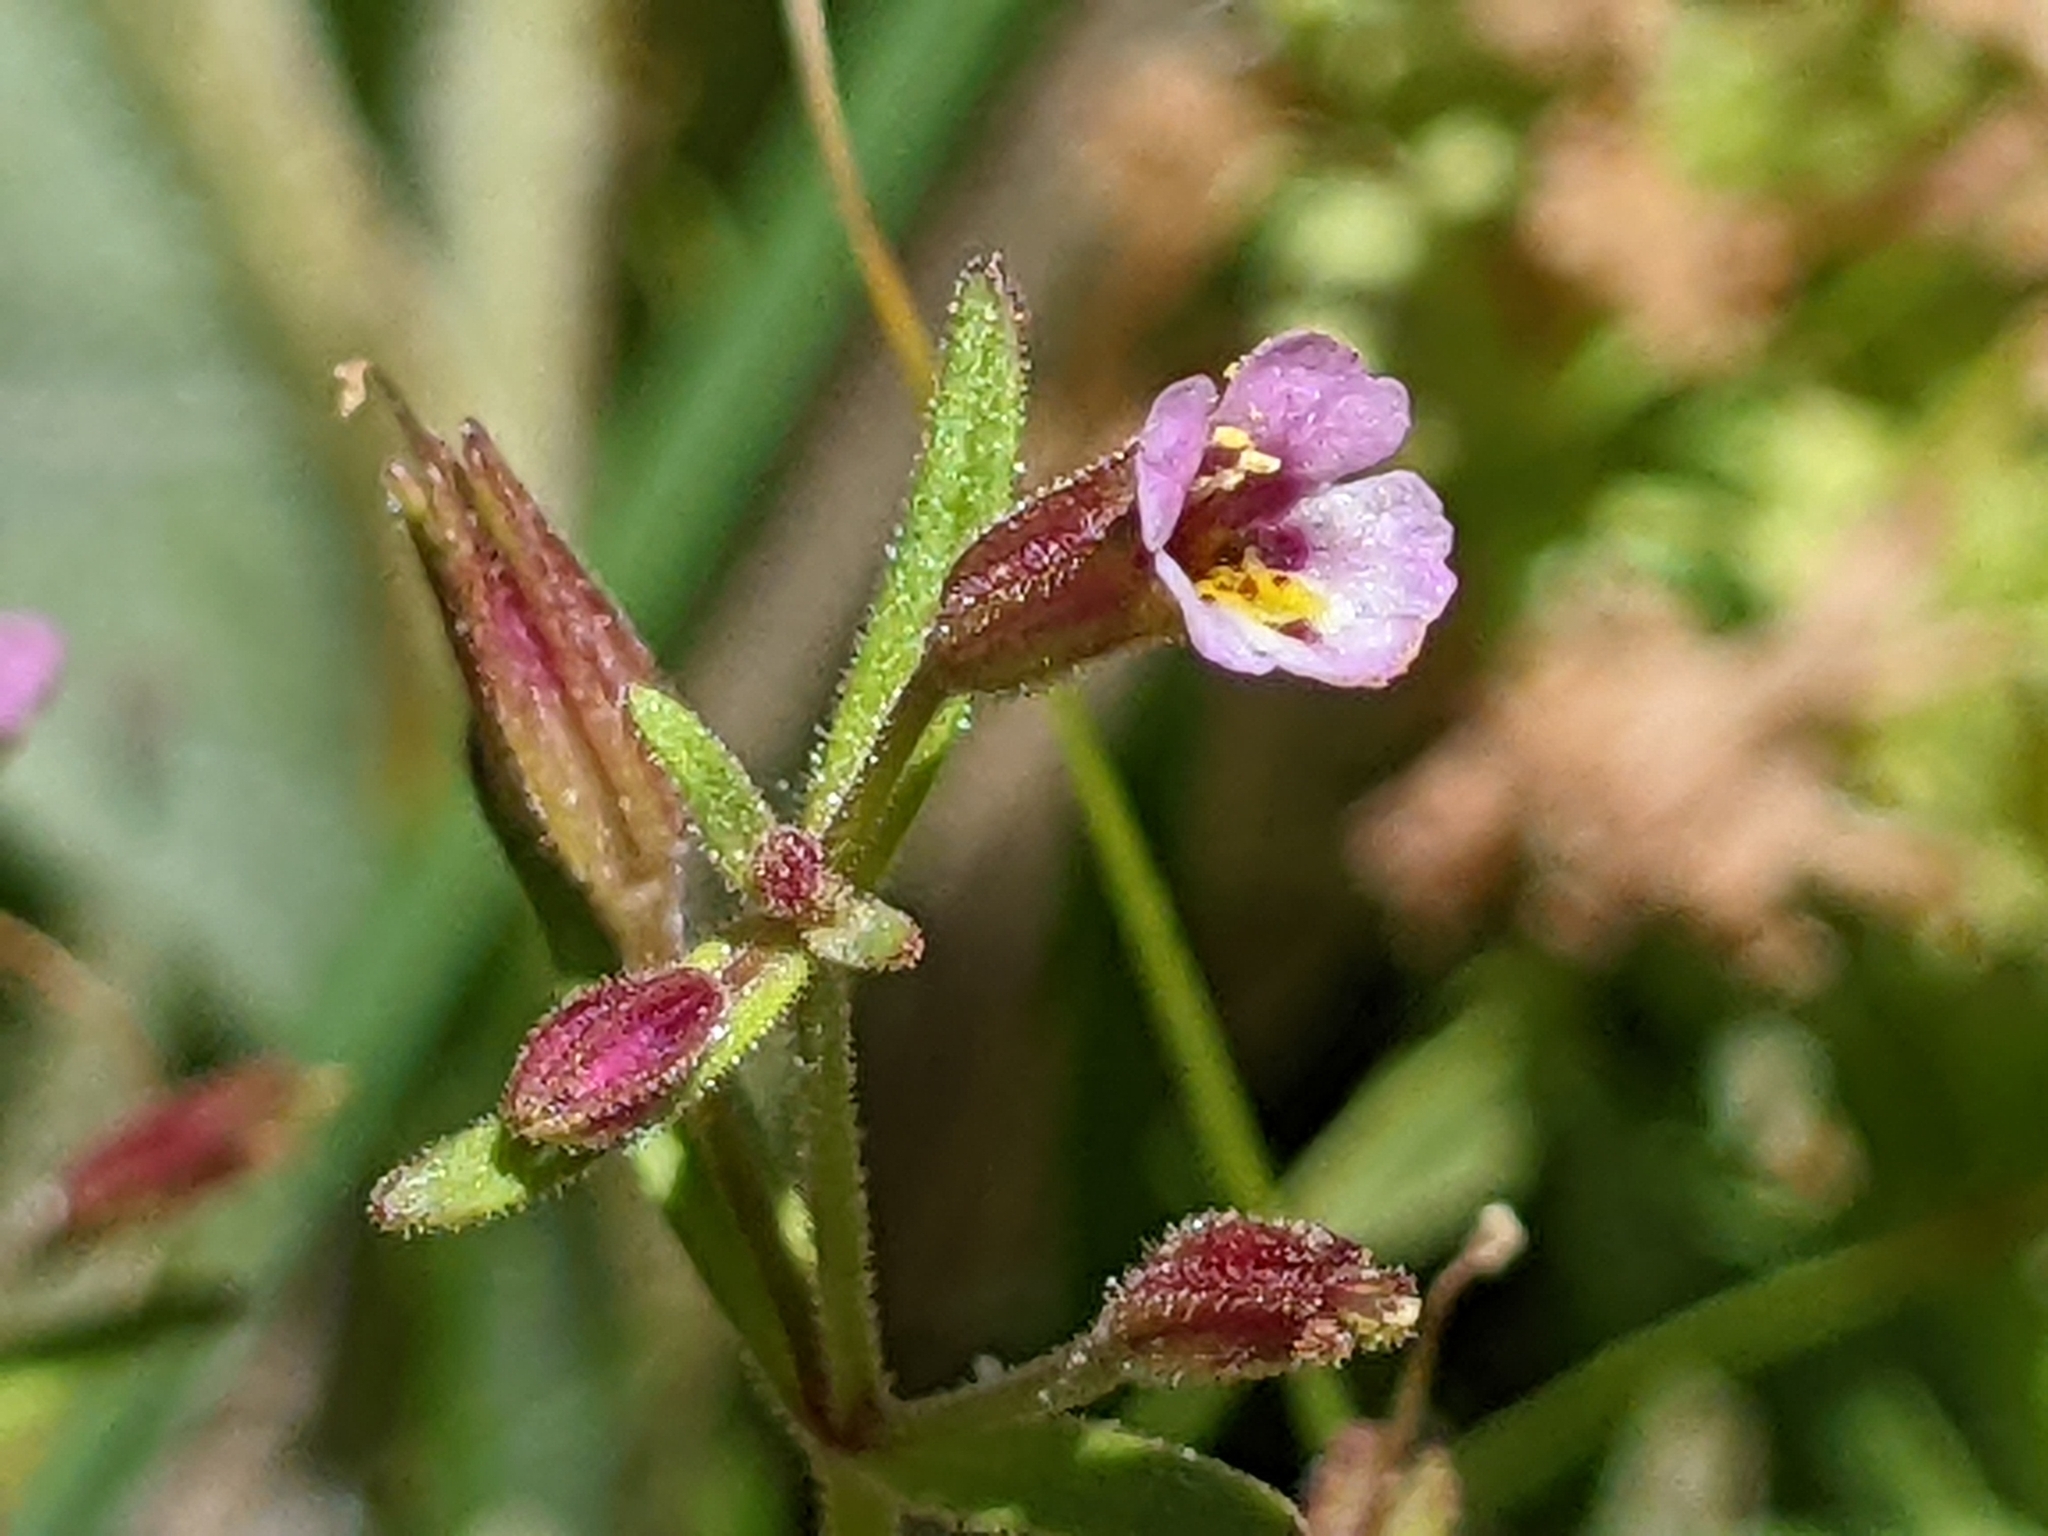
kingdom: Plantae
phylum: Tracheophyta
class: Magnoliopsida
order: Lamiales
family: Phrymaceae
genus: Erythranthe
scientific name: Erythranthe breweri
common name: Brewer's monkeyflower
